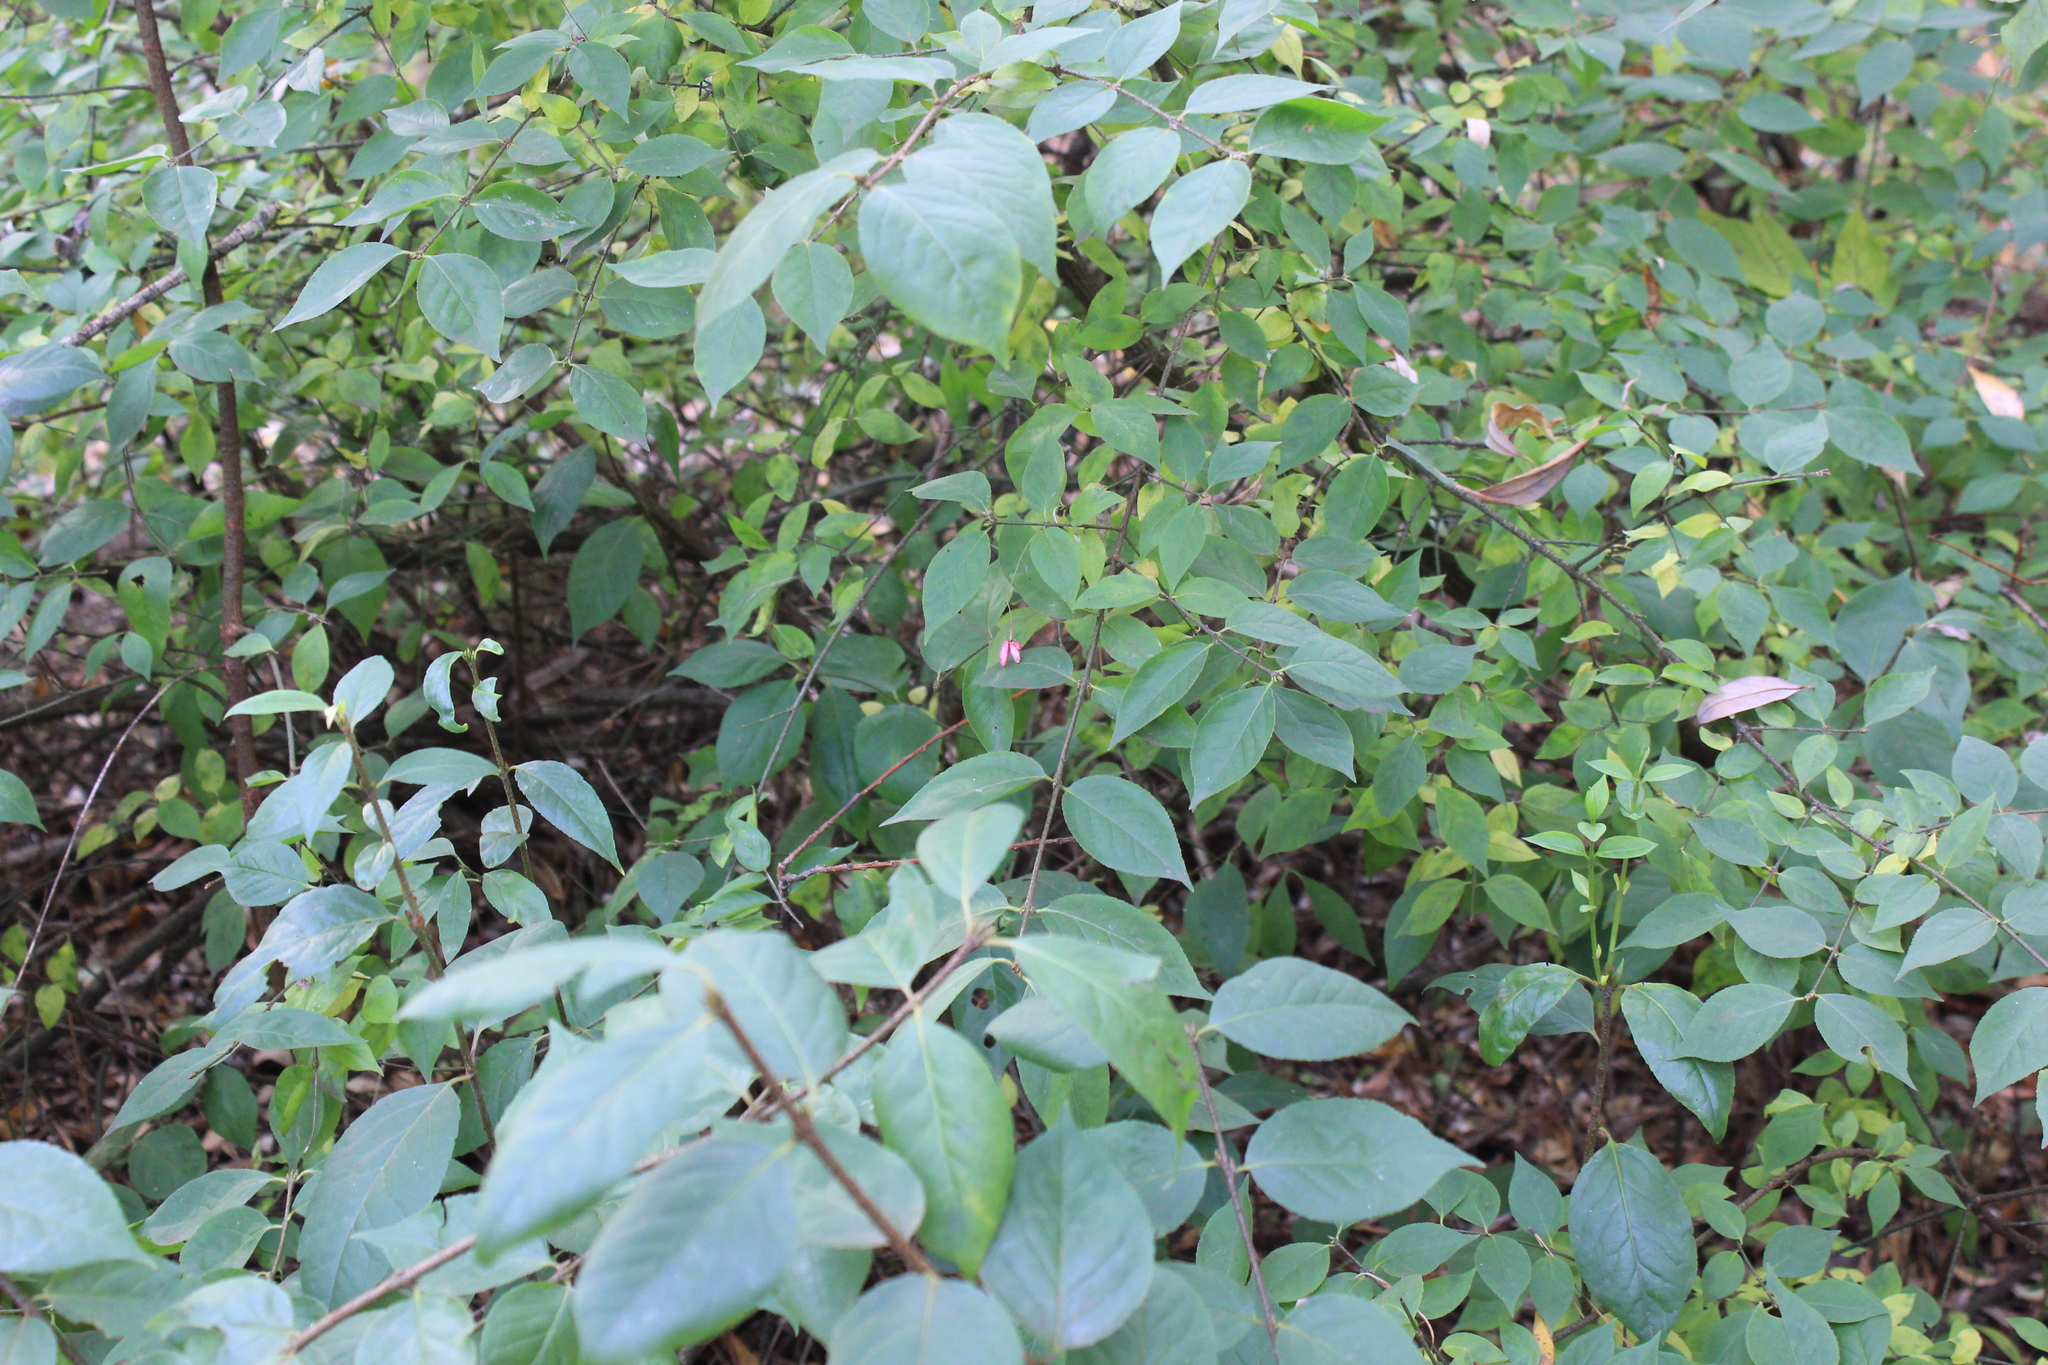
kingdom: Plantae
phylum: Tracheophyta
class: Magnoliopsida
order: Celastrales
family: Celastraceae
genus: Euonymus
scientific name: Euonymus verrucosus
